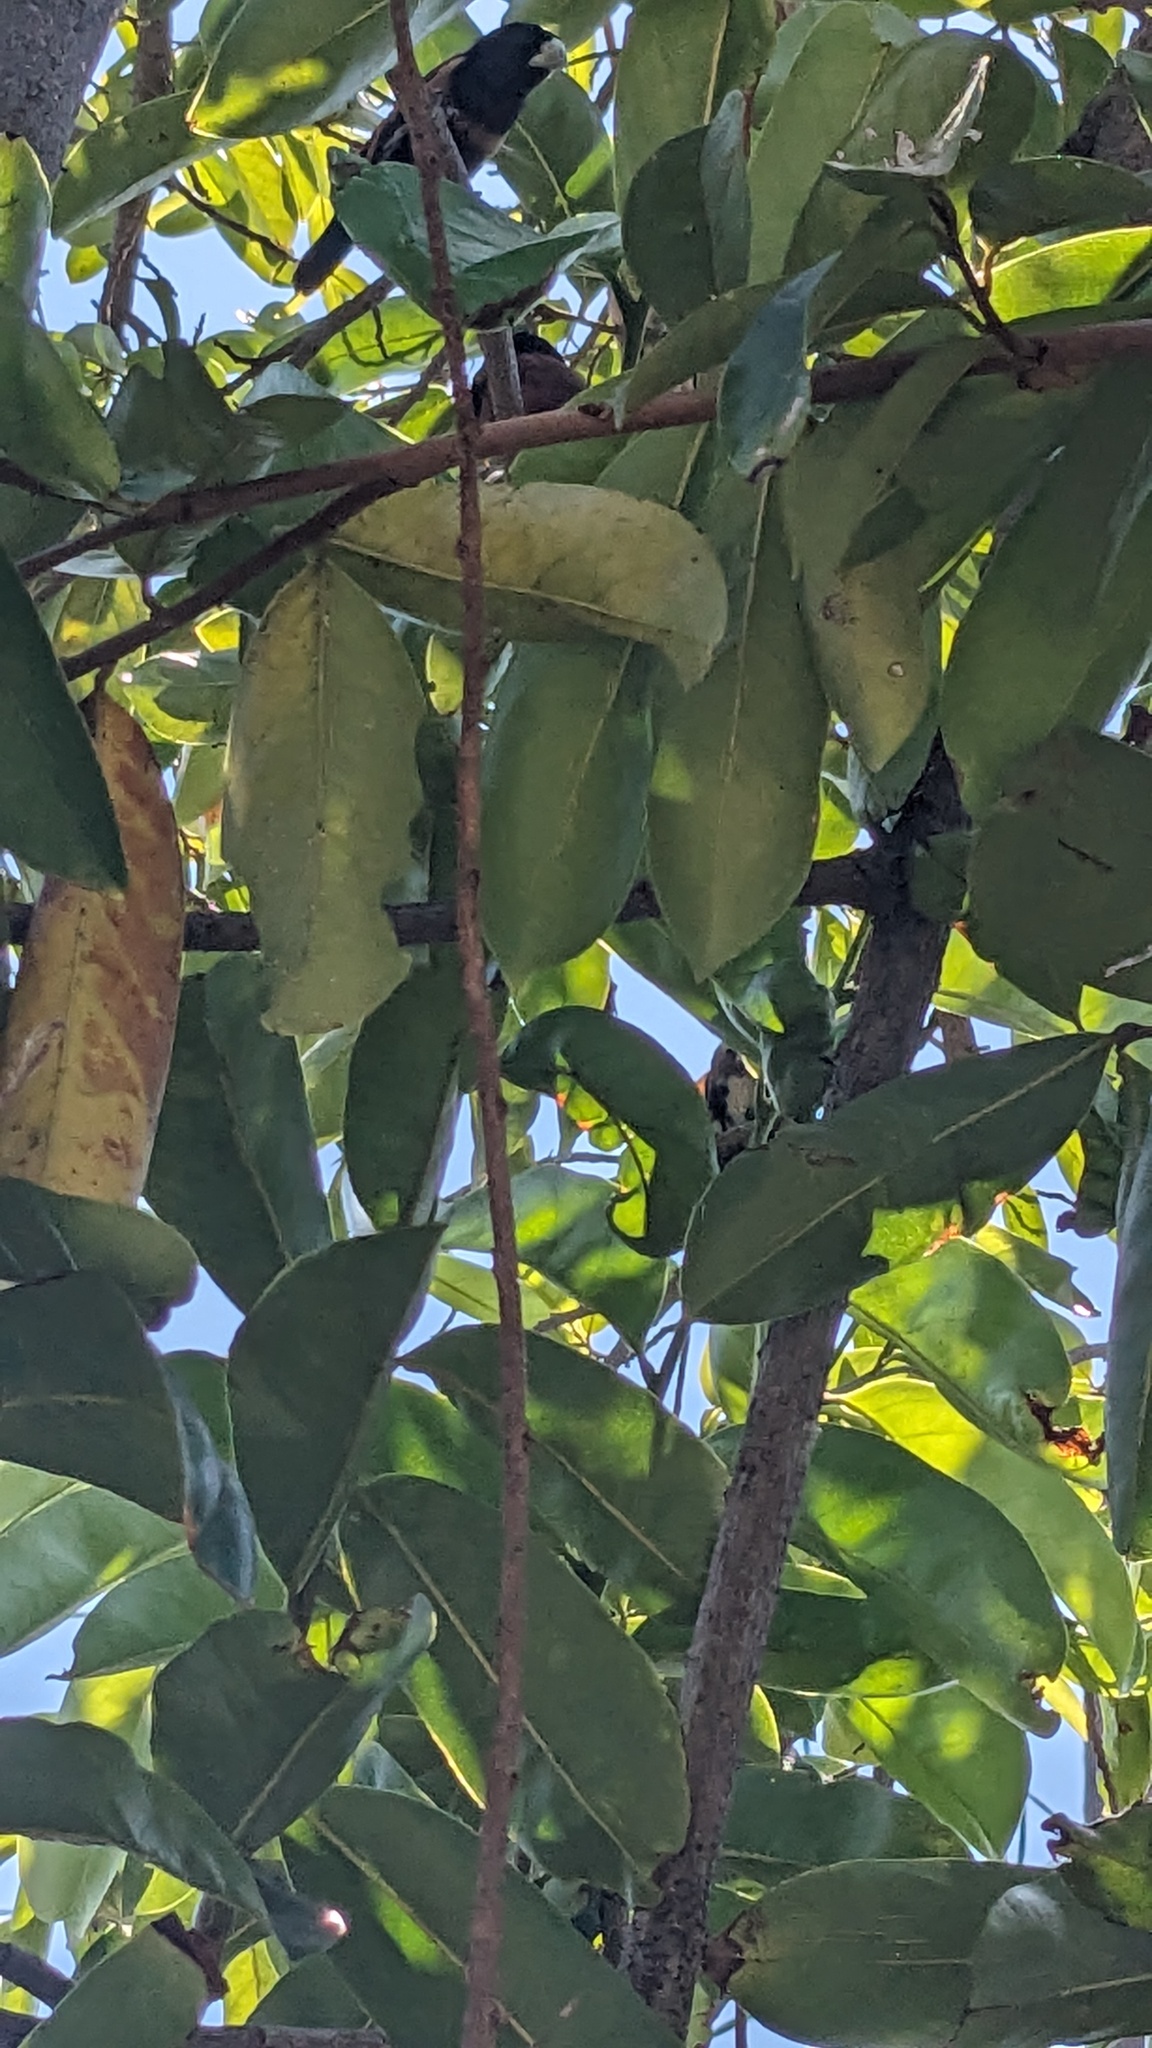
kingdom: Animalia
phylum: Chordata
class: Aves
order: Passeriformes
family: Estrildidae
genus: Lonchura
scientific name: Lonchura atricapilla
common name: Chestnut munia
